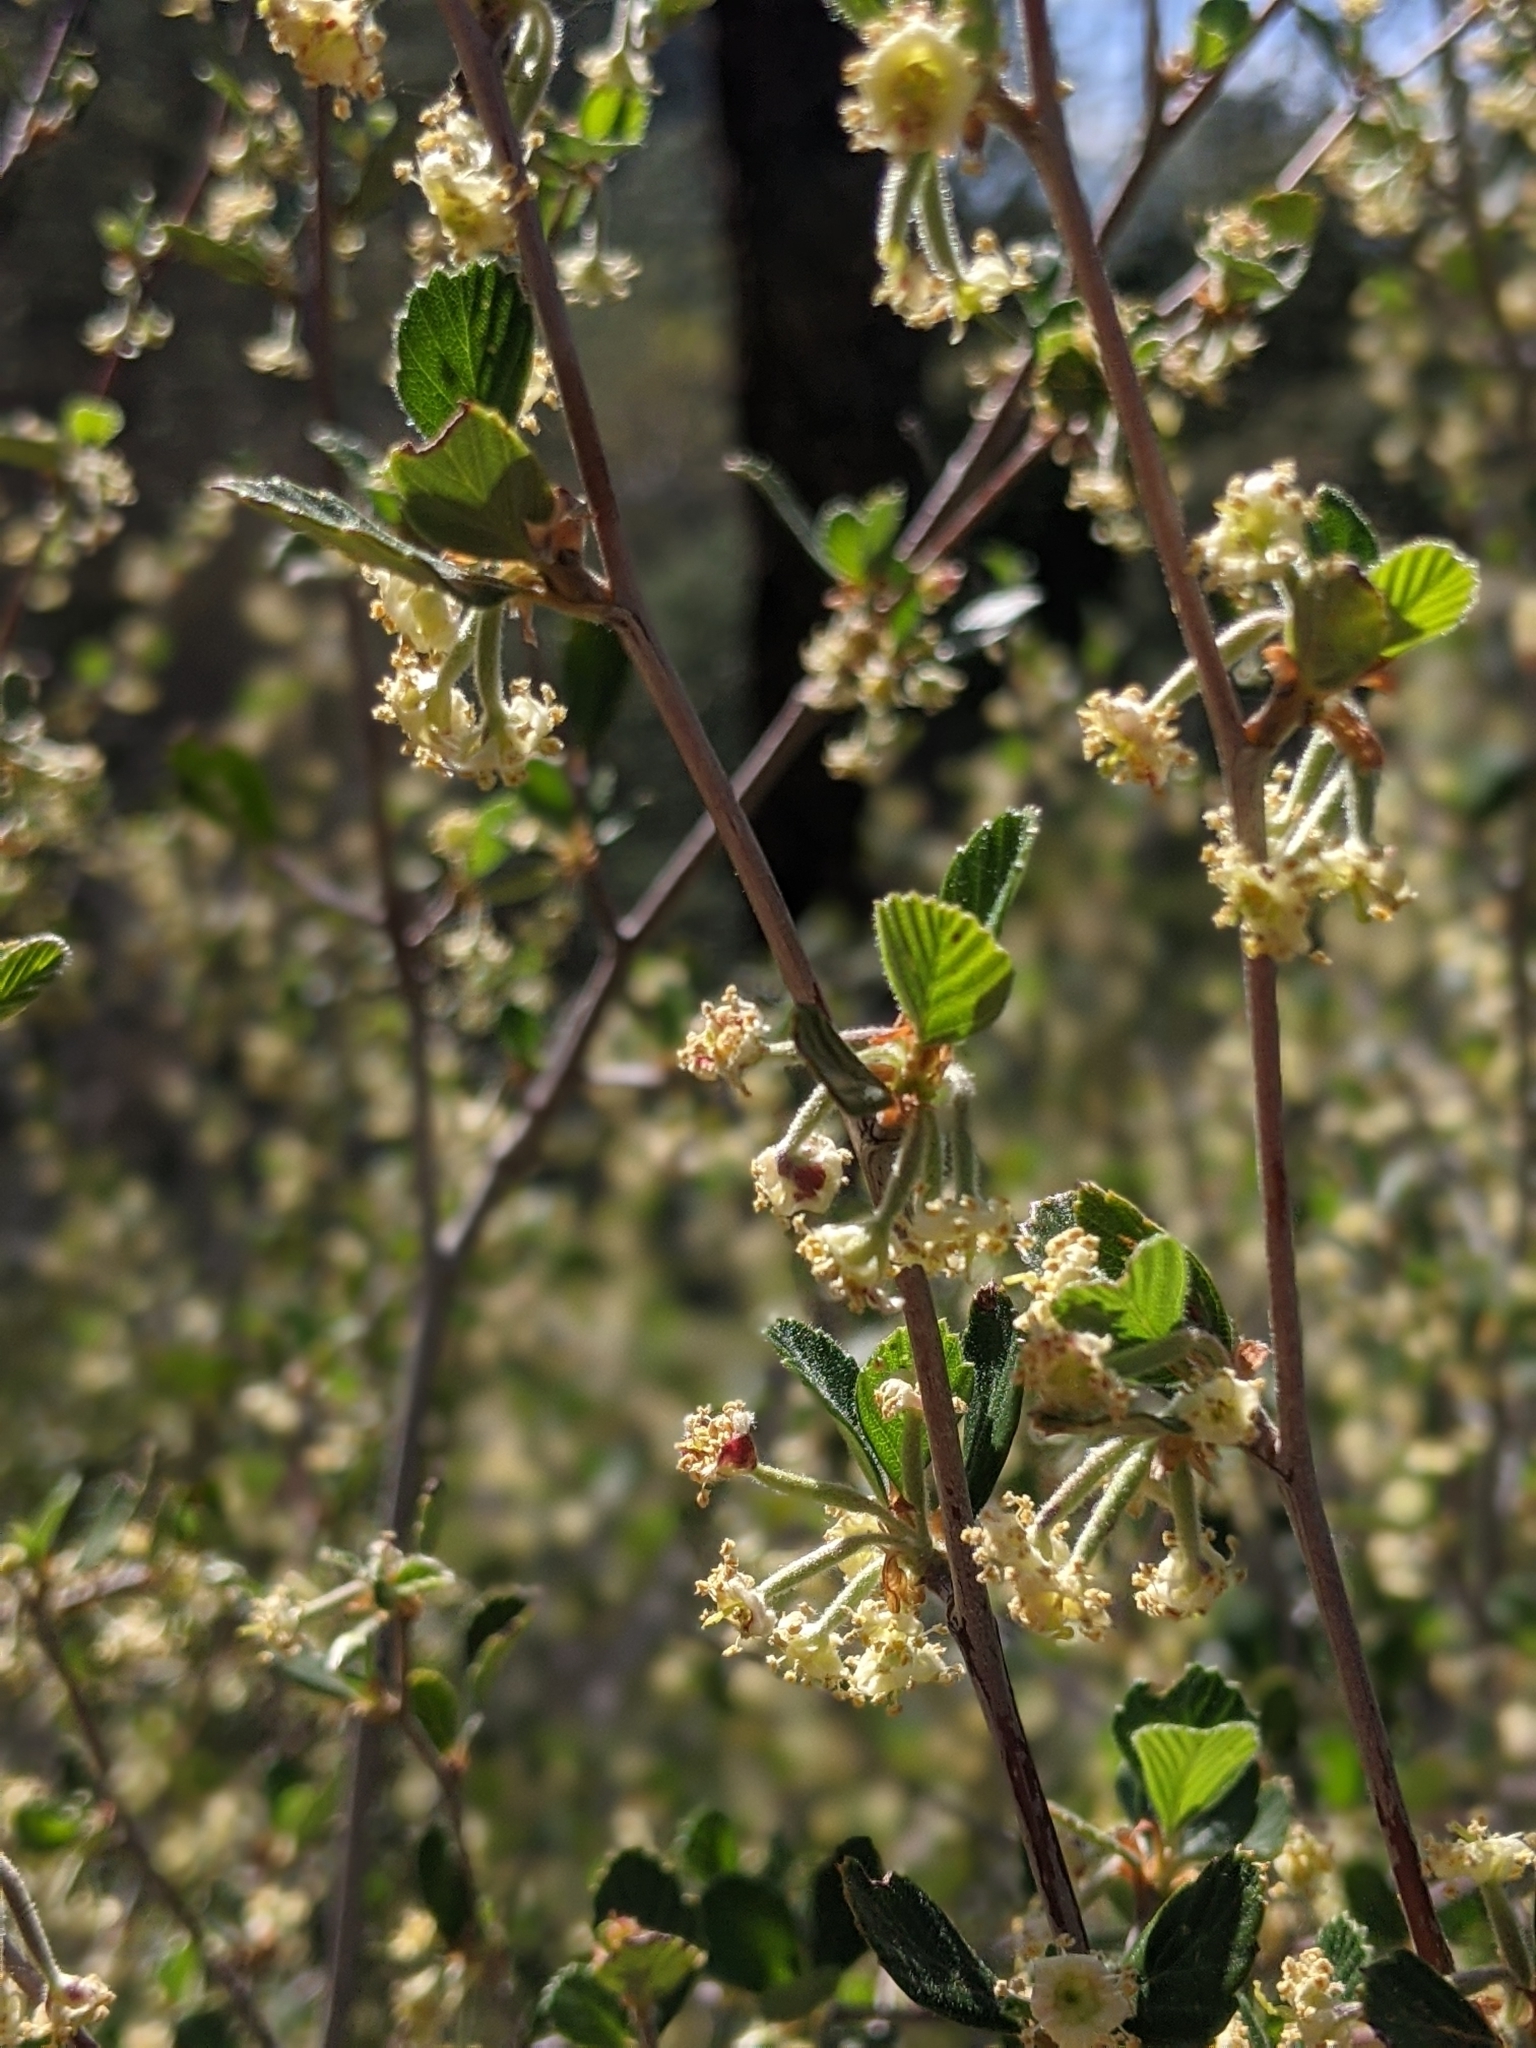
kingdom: Plantae
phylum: Tracheophyta
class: Magnoliopsida
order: Rosales
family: Rosaceae
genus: Cercocarpus
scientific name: Cercocarpus betuloides
